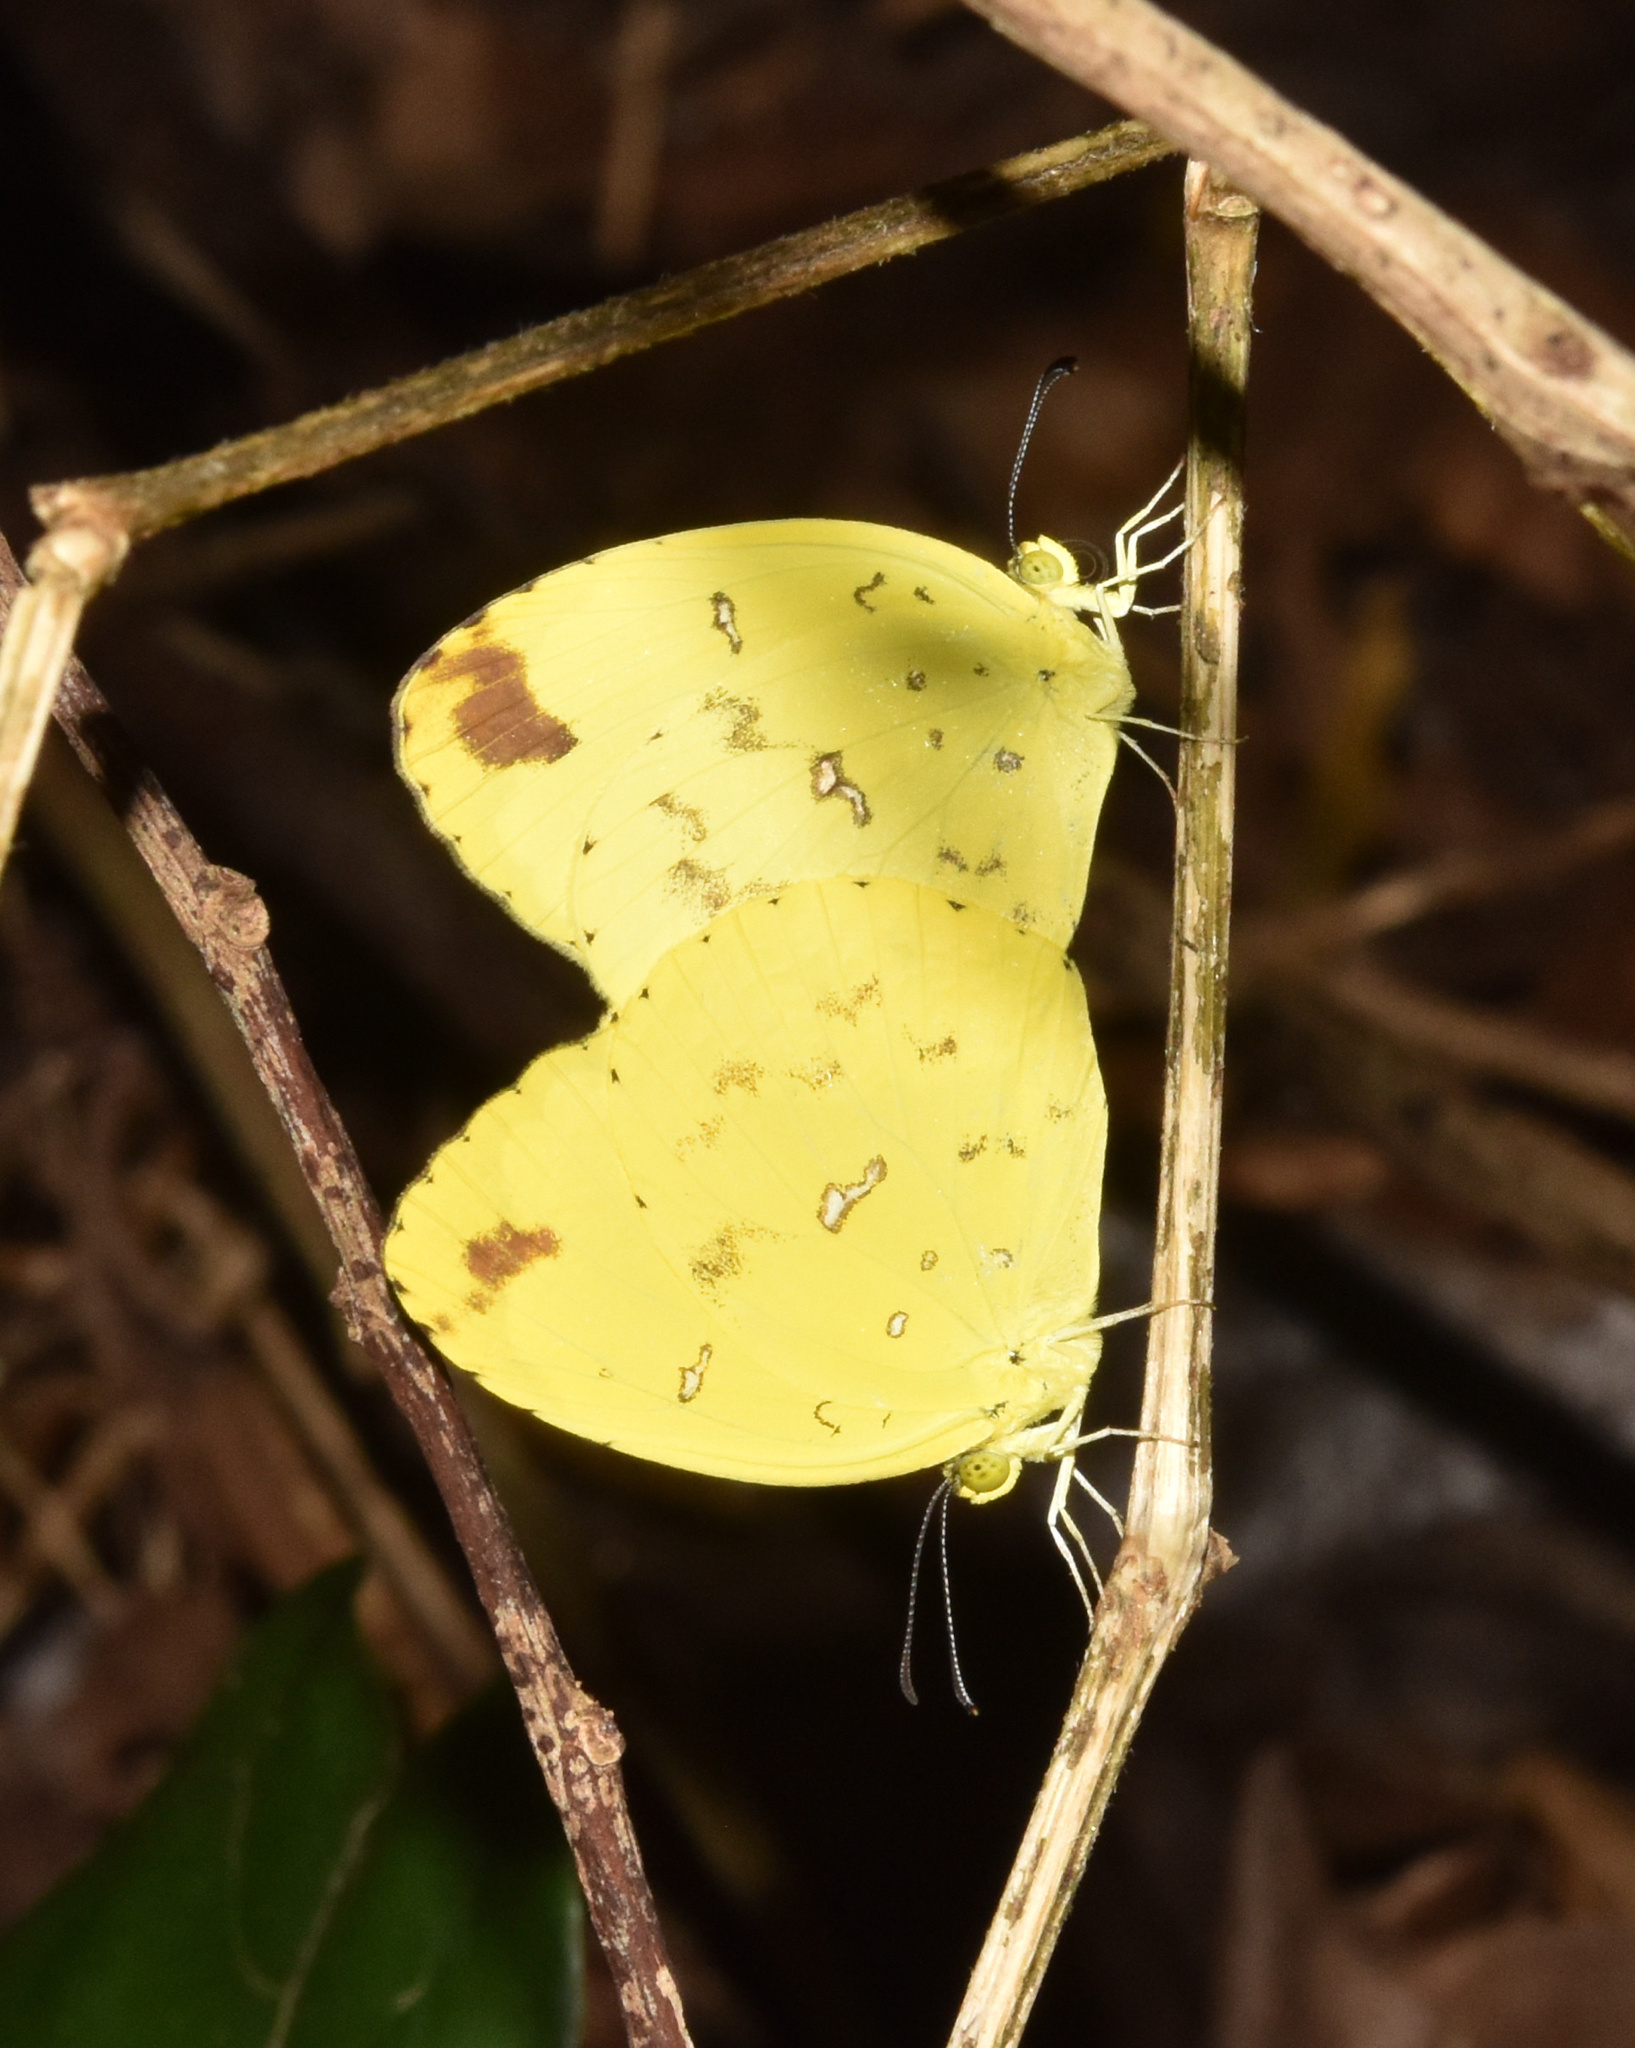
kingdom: Animalia
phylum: Arthropoda
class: Insecta
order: Lepidoptera
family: Pieridae
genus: Eurema
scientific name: Eurema floricola
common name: Malagasy grass yellow
